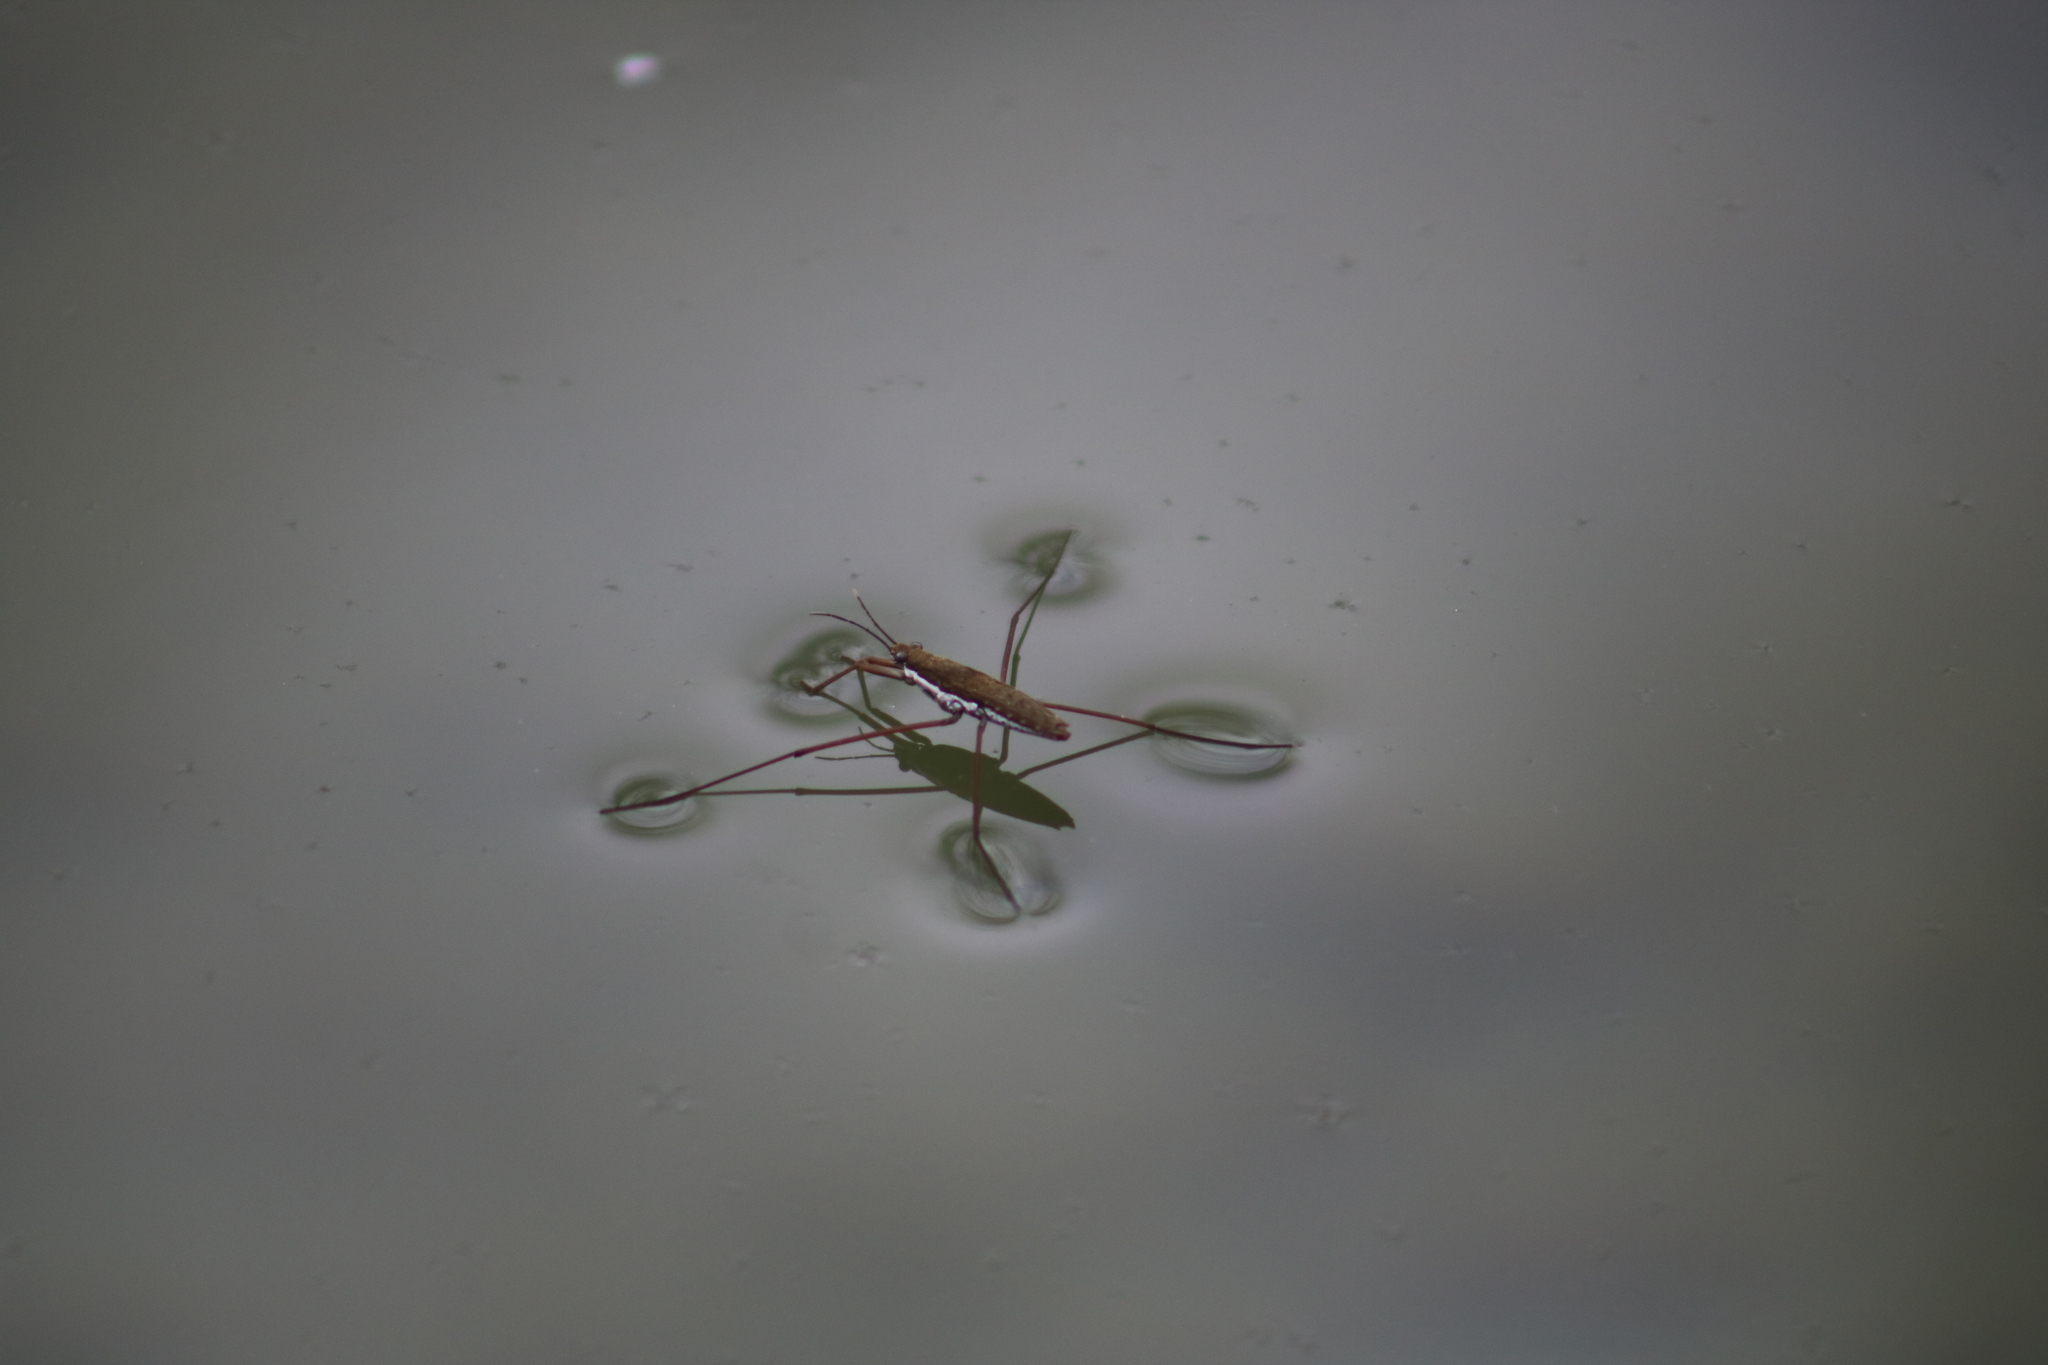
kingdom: Animalia
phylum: Arthropoda
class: Insecta
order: Hemiptera
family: Gerridae
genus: Aquarius
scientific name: Aquarius remigis
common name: Common water strider
